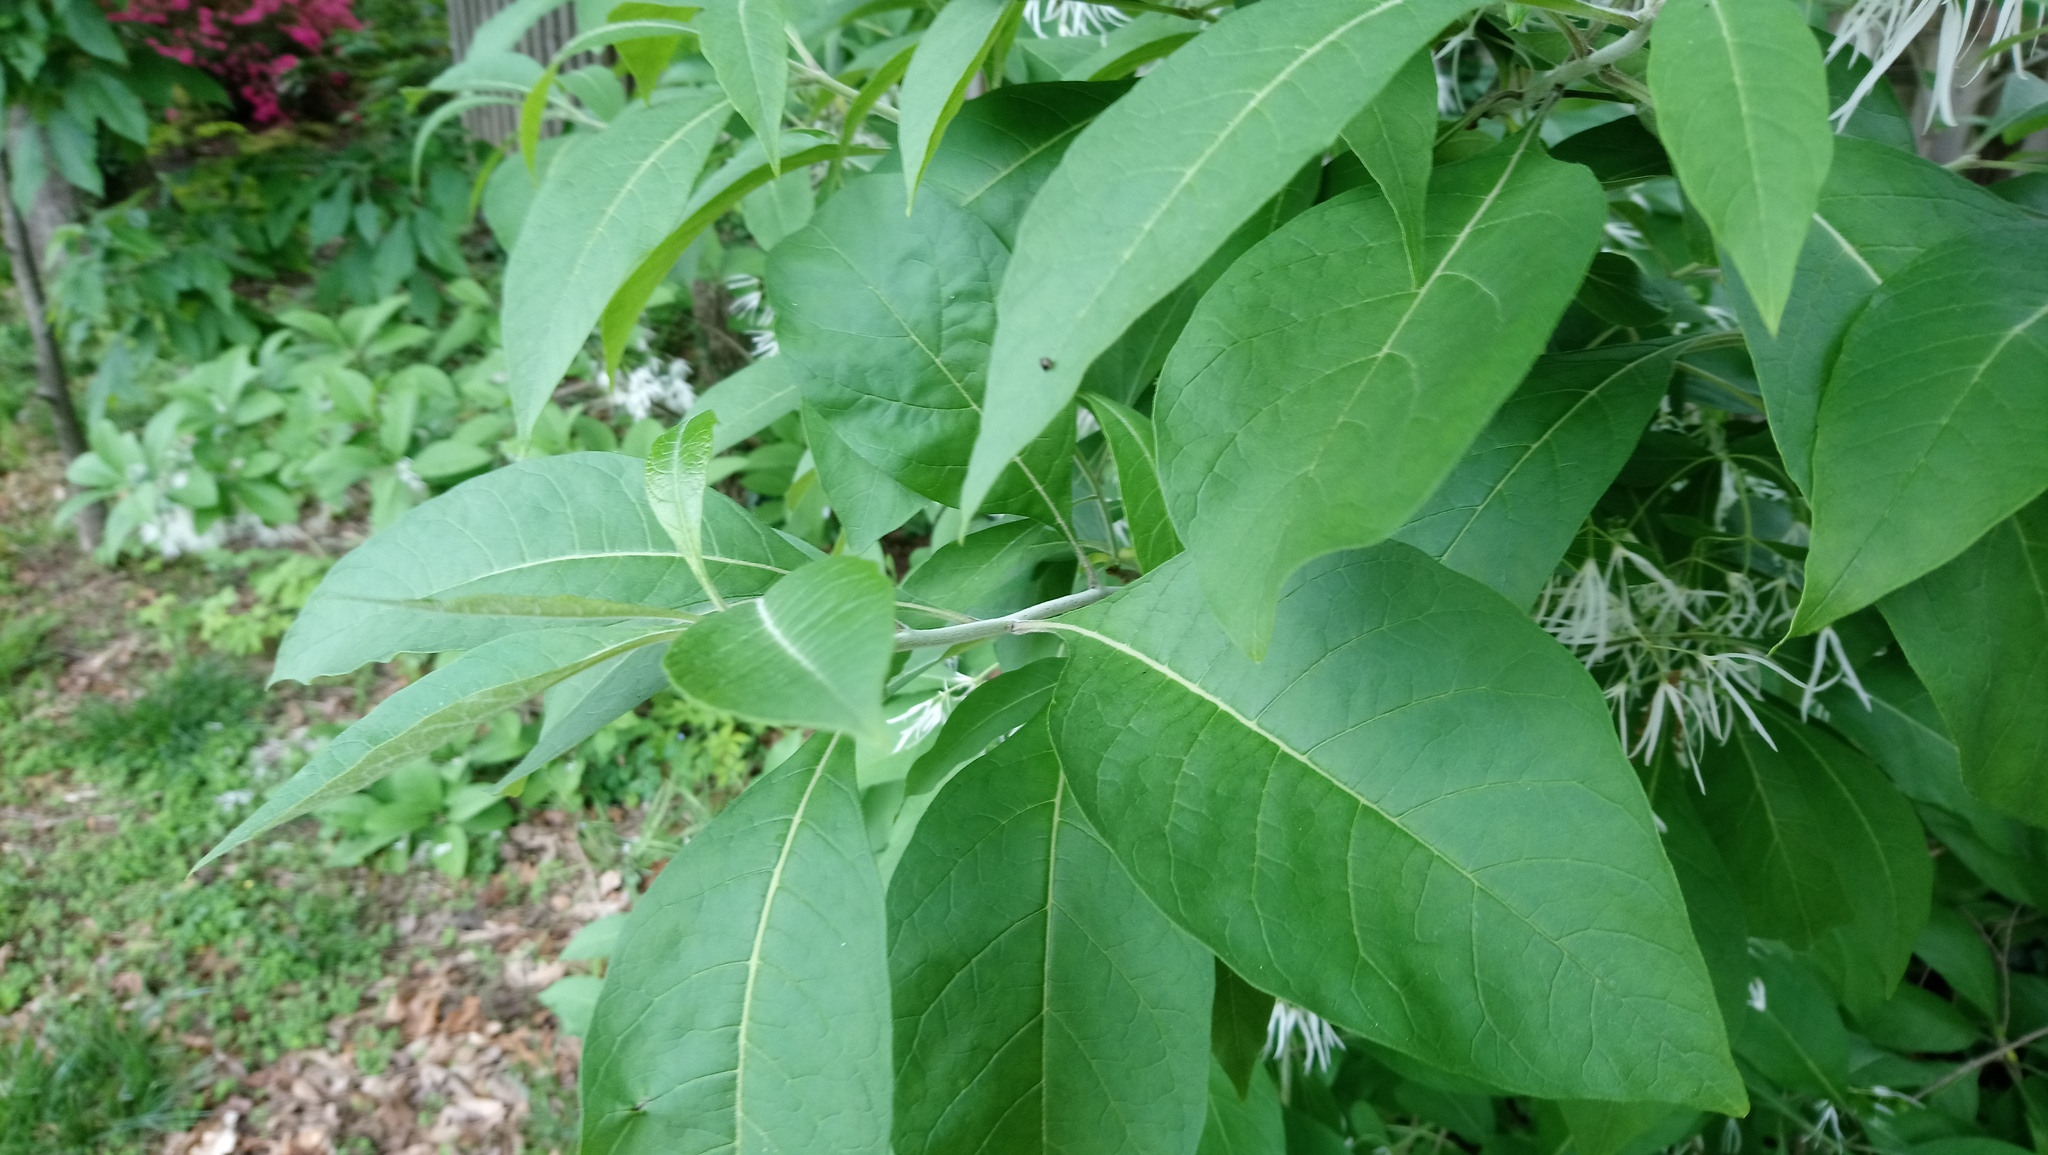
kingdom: Plantae
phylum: Tracheophyta
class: Magnoliopsida
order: Lamiales
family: Oleaceae
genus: Chionanthus
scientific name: Chionanthus virginicus
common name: American fringetree
